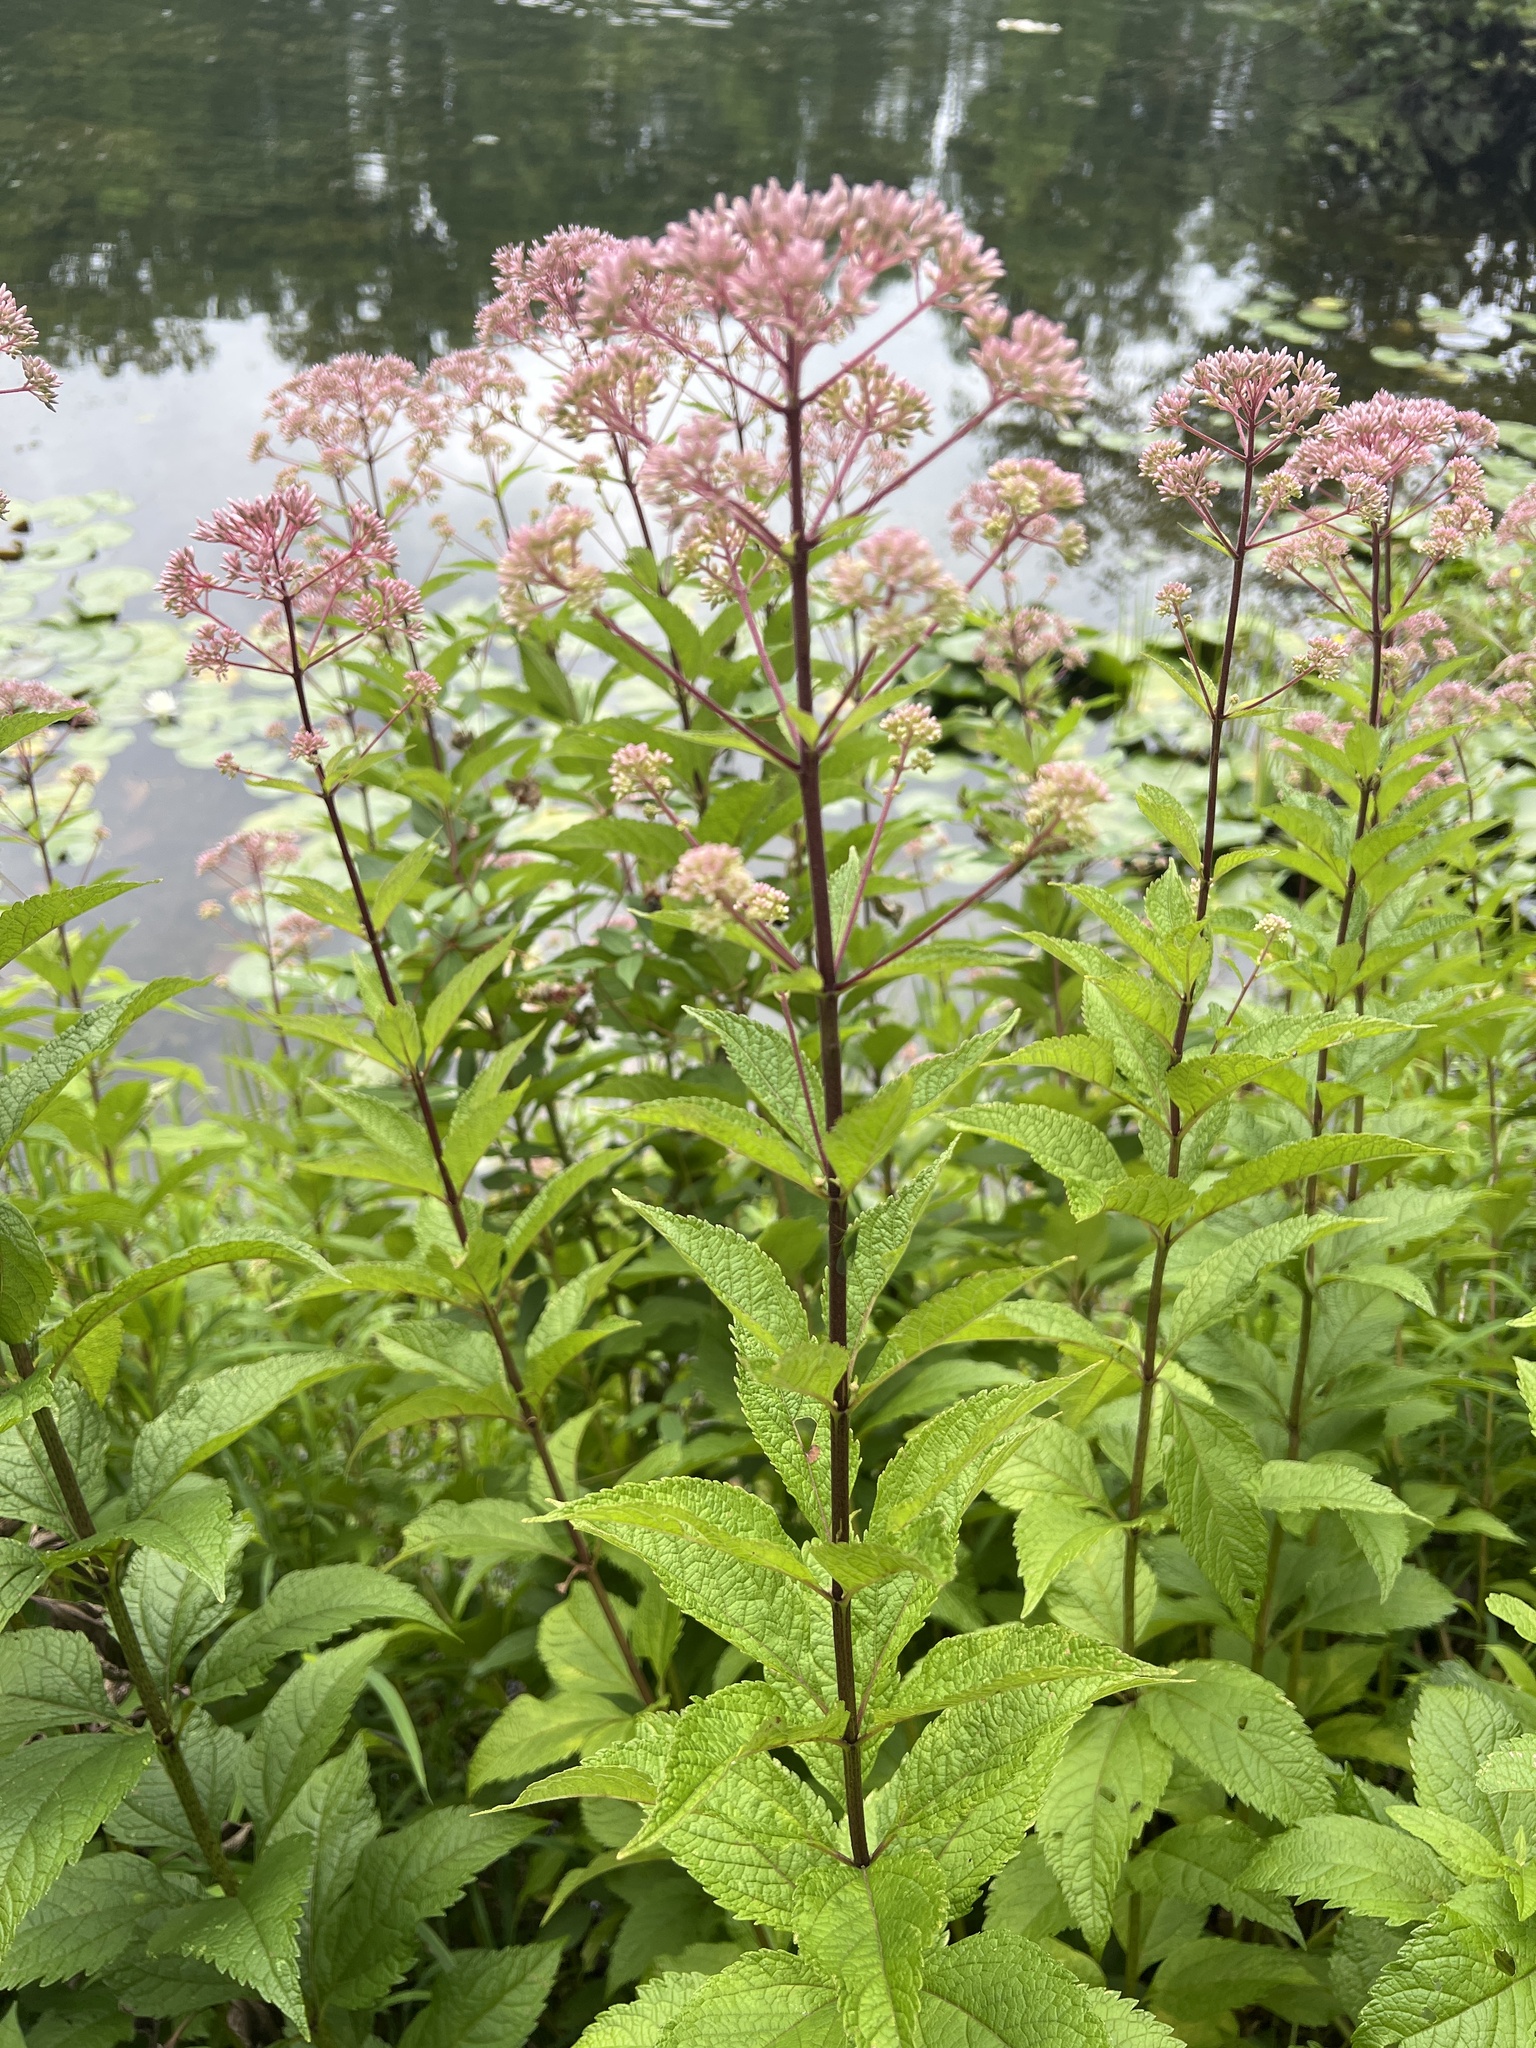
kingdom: Plantae
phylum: Tracheophyta
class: Magnoliopsida
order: Asterales
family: Asteraceae
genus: Eutrochium
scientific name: Eutrochium dubium
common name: Coastal plain joe pye weed
